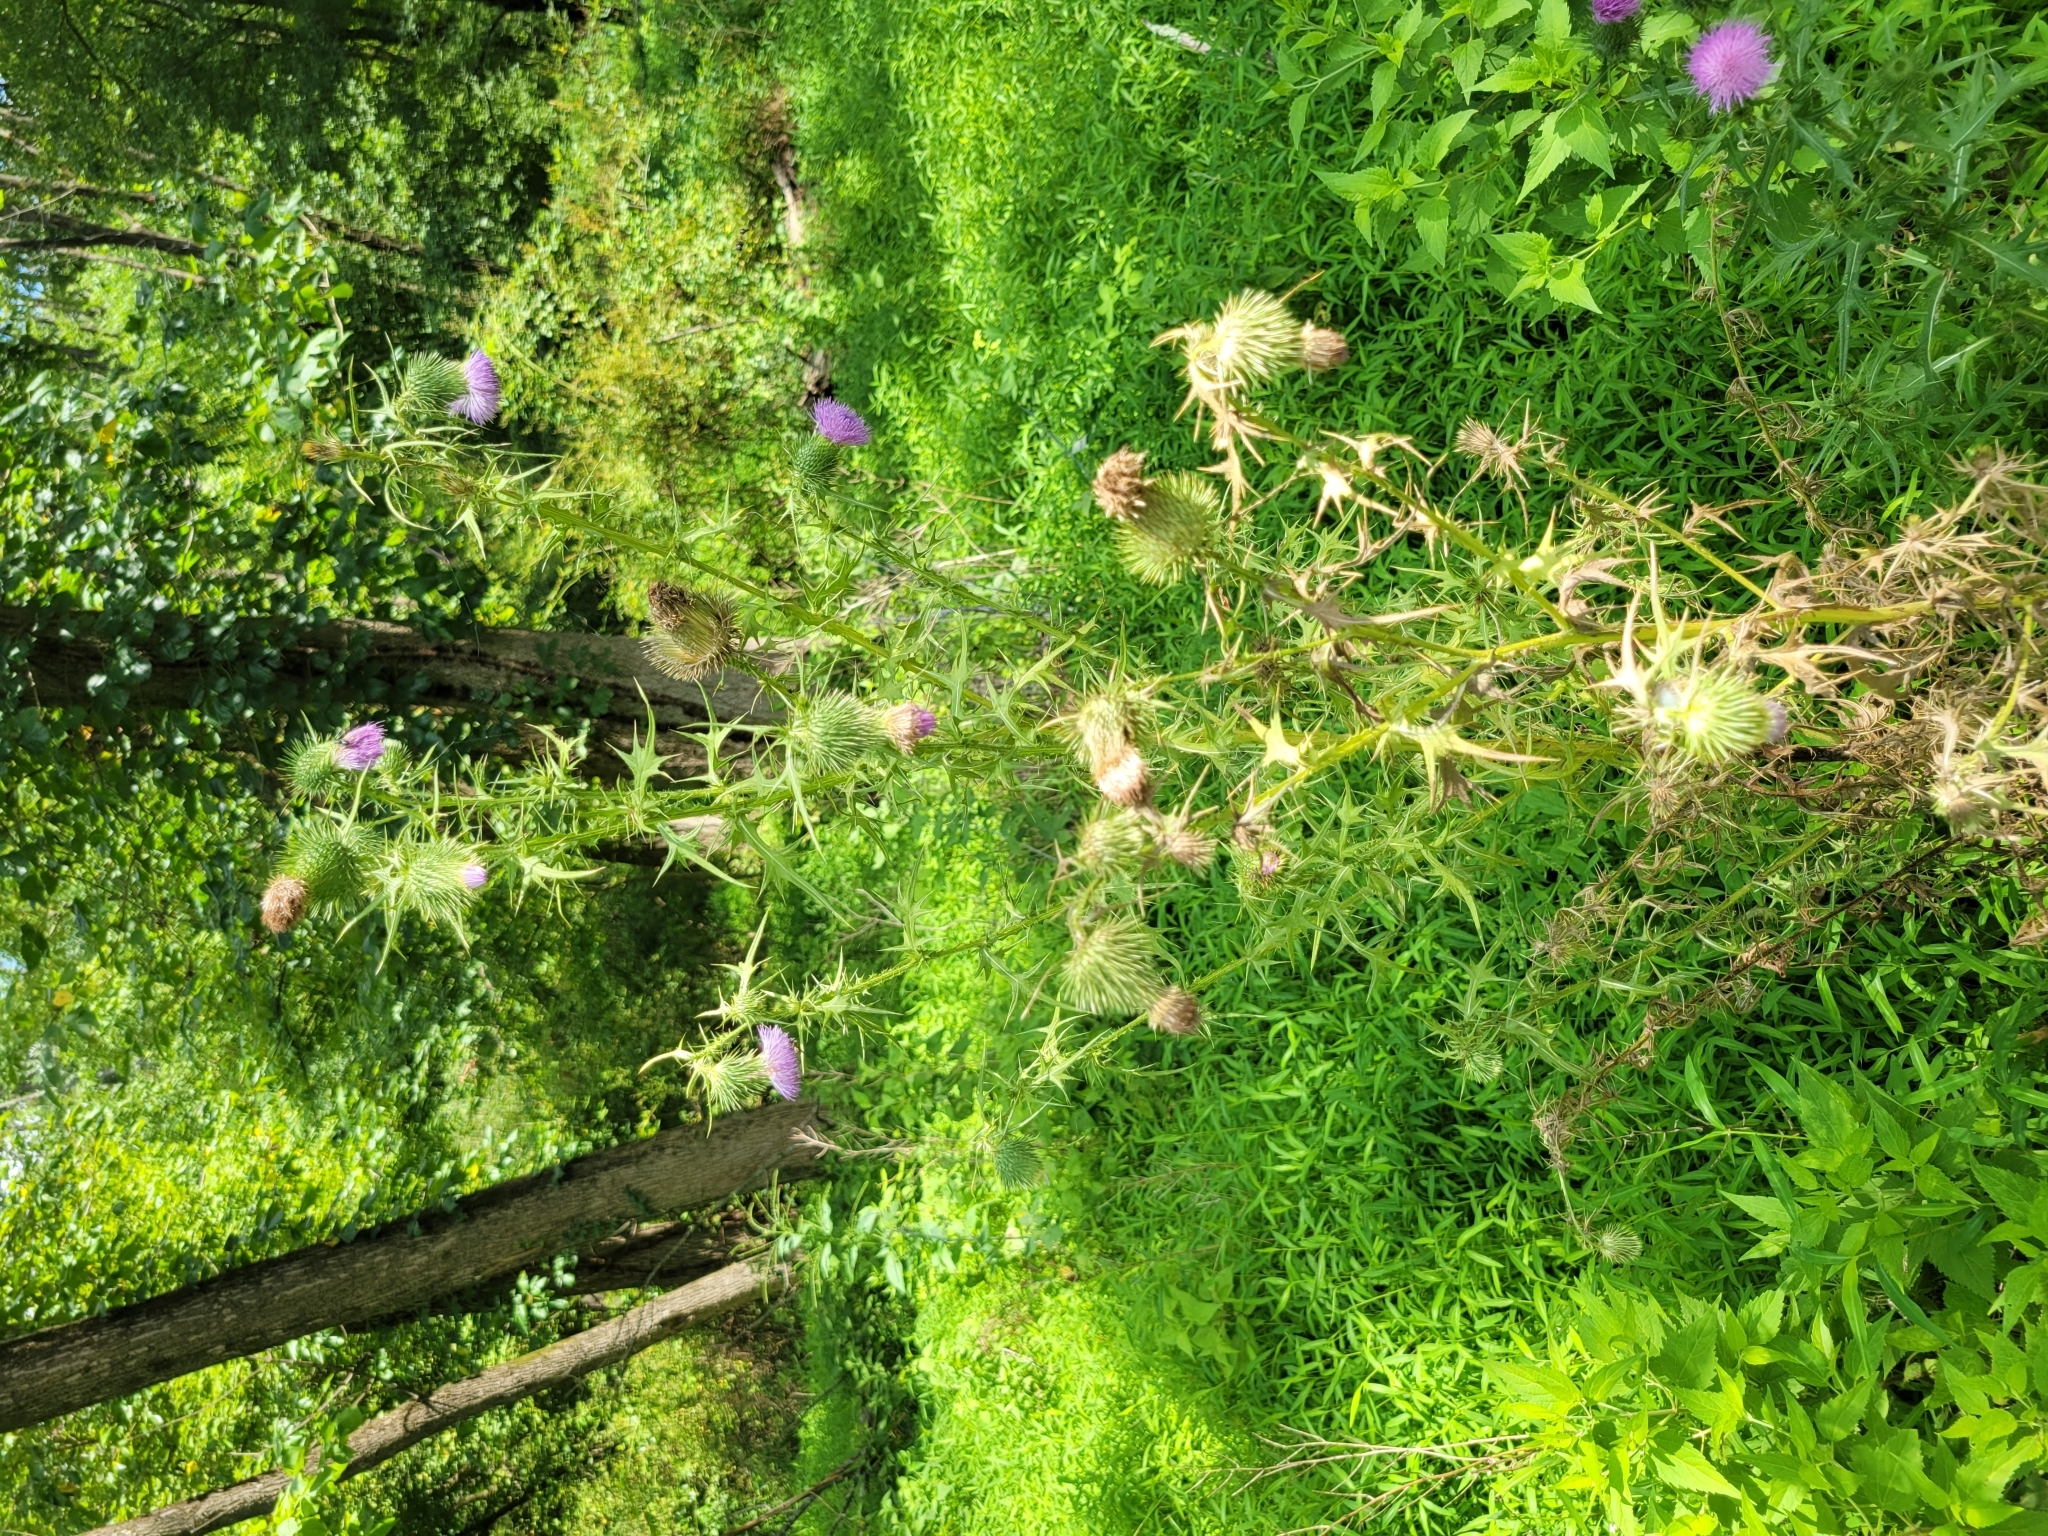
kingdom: Plantae
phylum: Tracheophyta
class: Magnoliopsida
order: Asterales
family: Asteraceae
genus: Cirsium
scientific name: Cirsium vulgare
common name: Bull thistle
